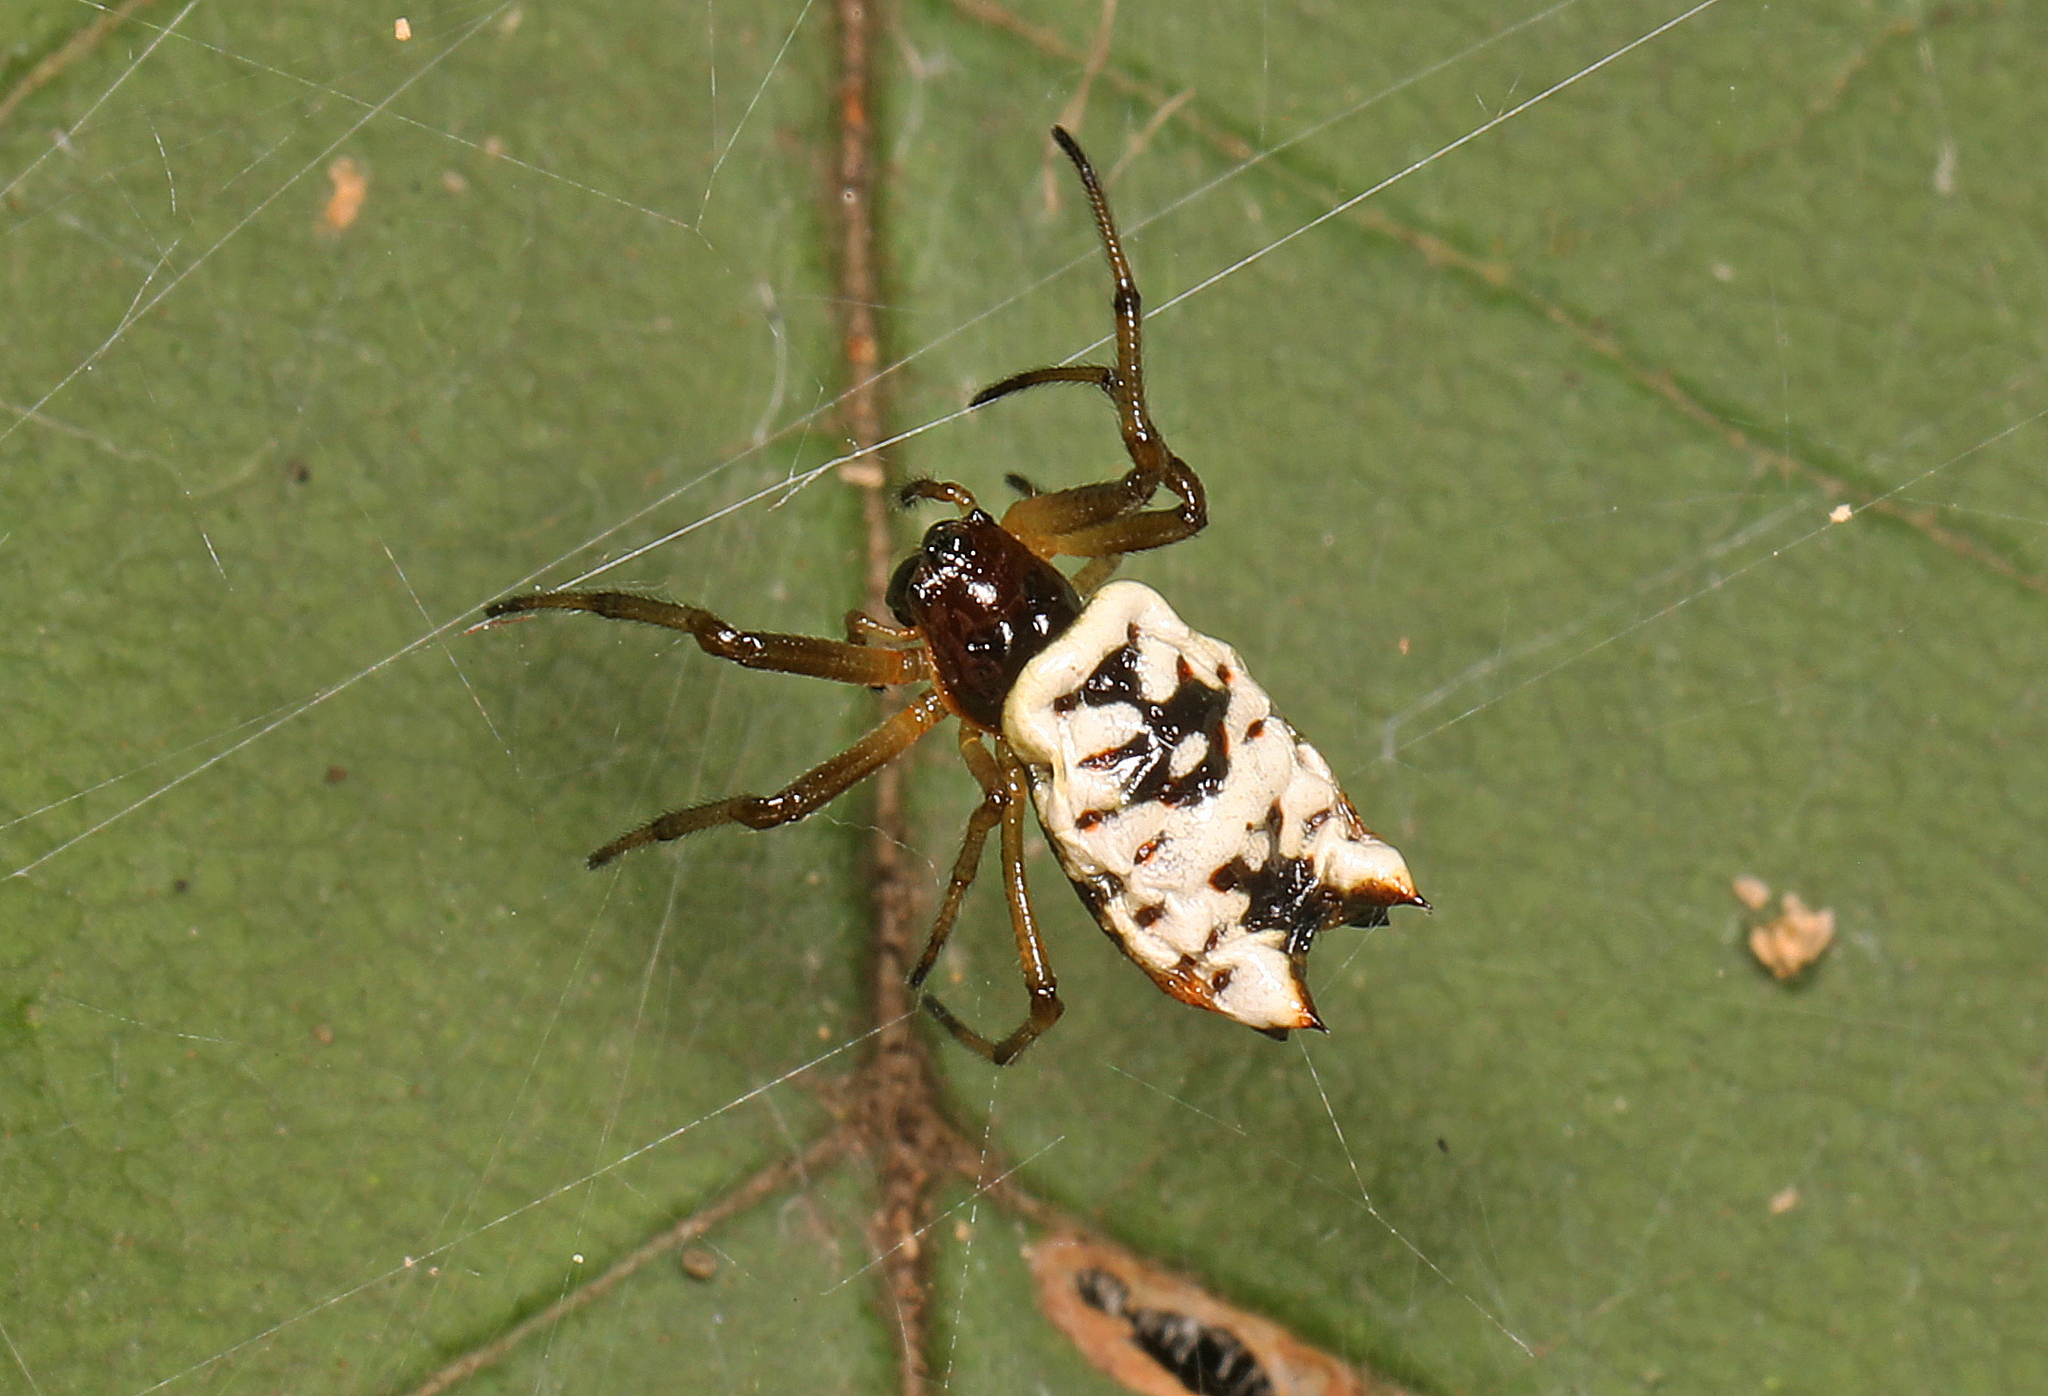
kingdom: Animalia
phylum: Arthropoda
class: Arachnida
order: Araneae
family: Araneidae
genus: Micrathena
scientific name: Micrathena mitrata
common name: Orb weavers
